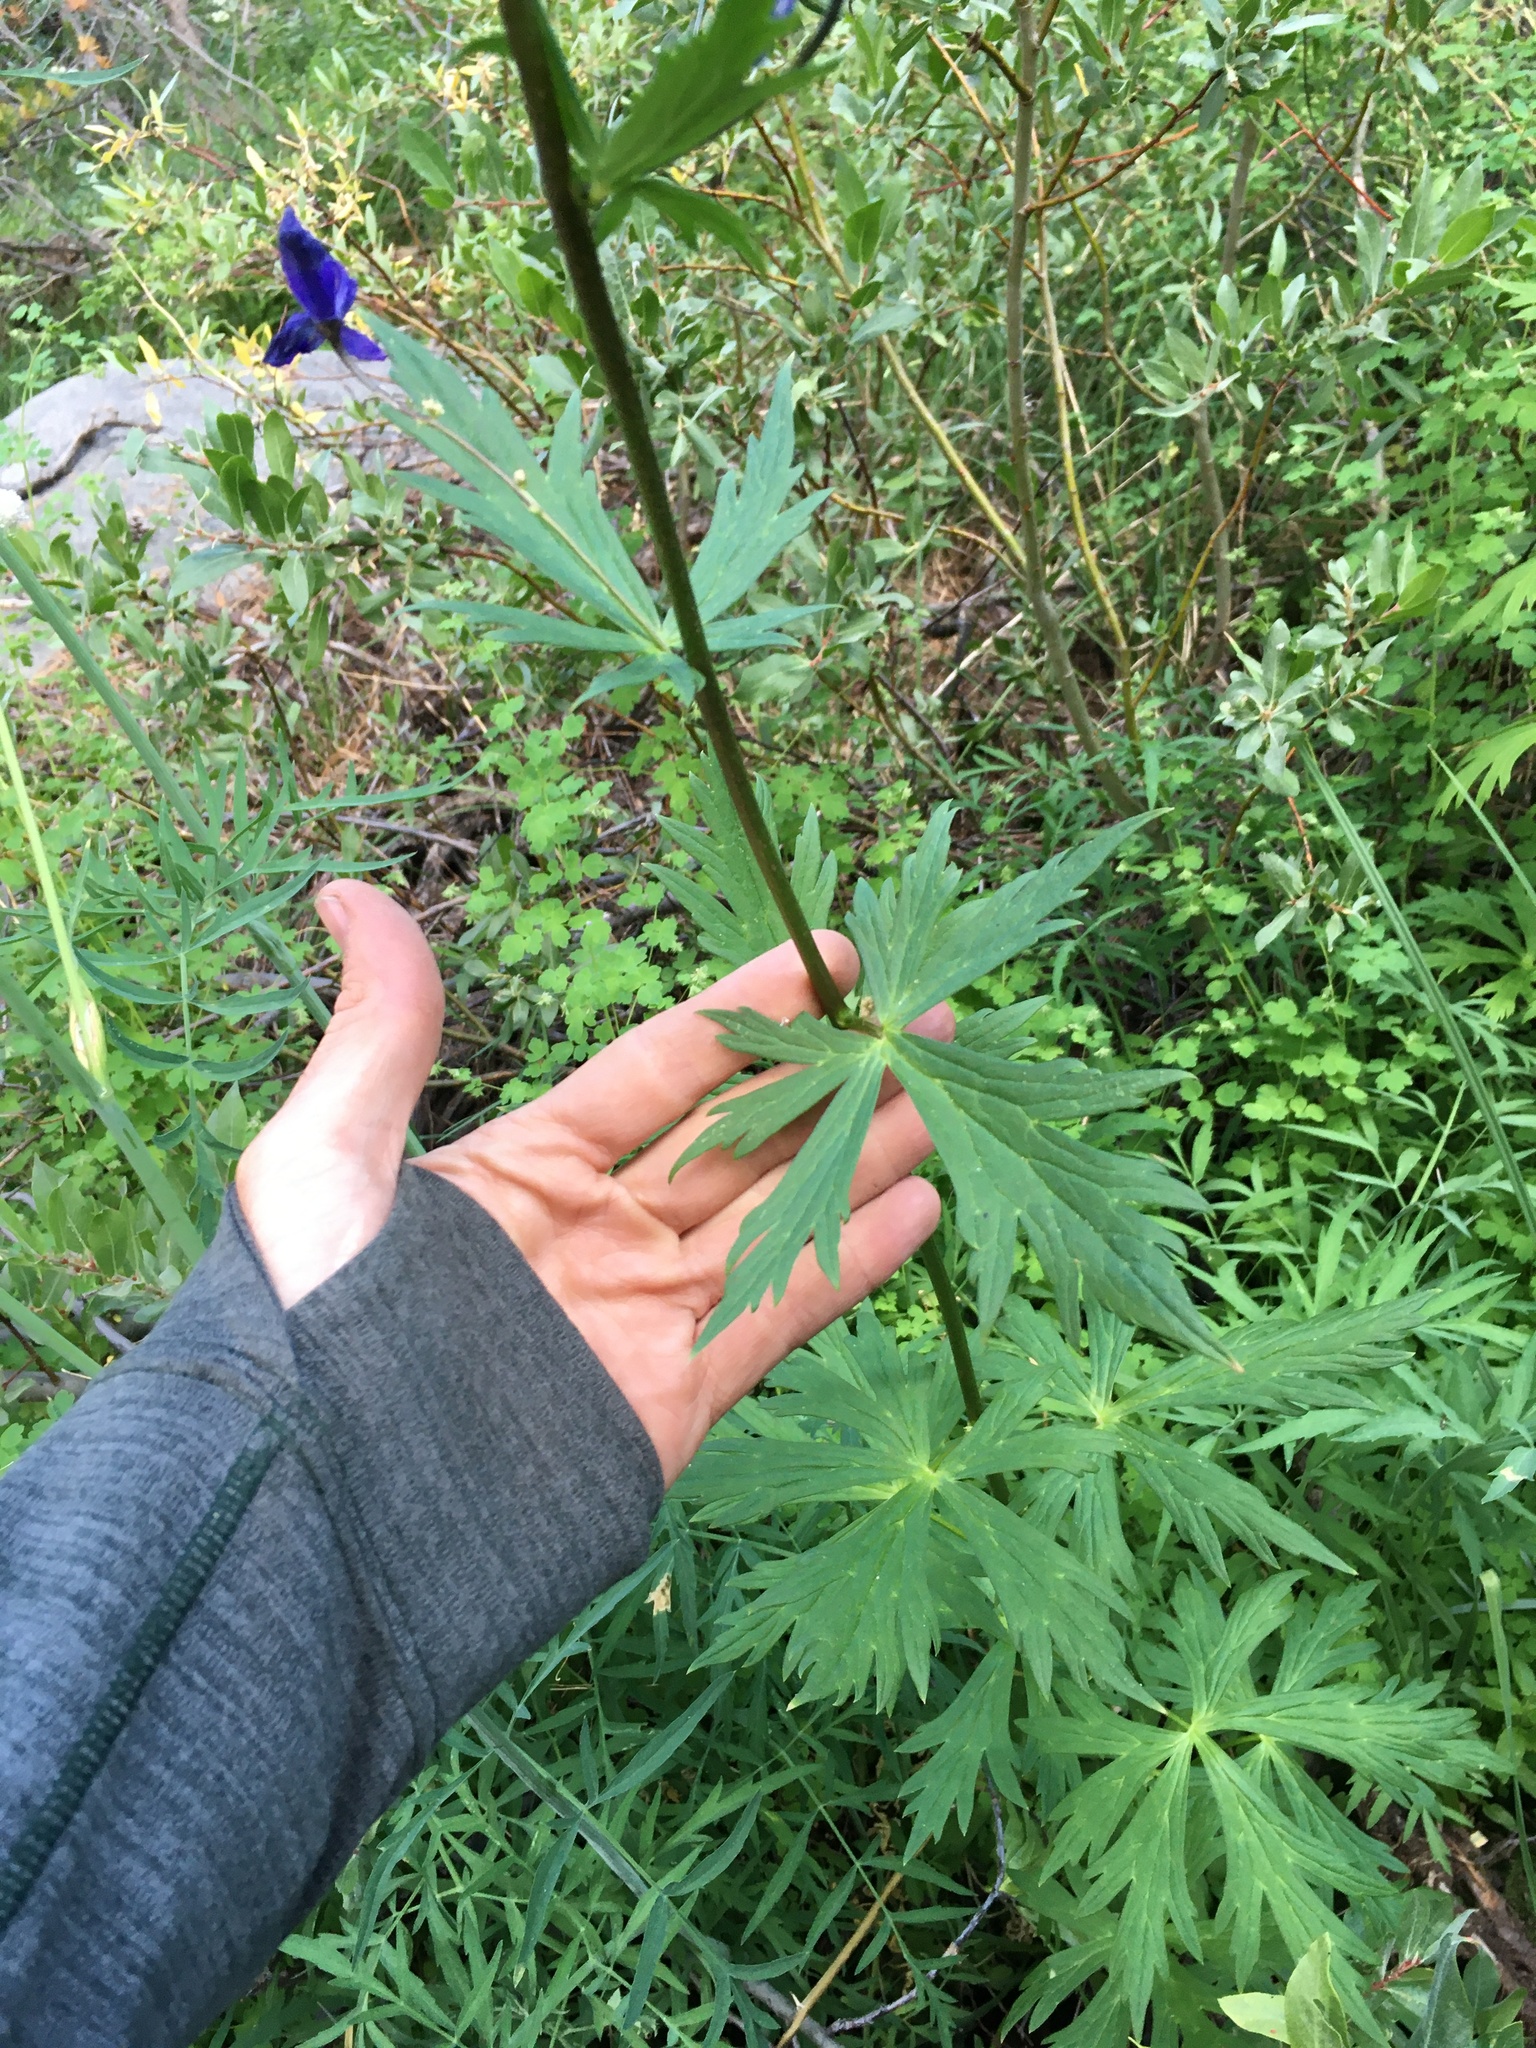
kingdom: Plantae
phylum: Tracheophyta
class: Magnoliopsida
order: Ranunculales
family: Ranunculaceae
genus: Aconitum
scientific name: Aconitum columbianum
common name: Columbia aconite
